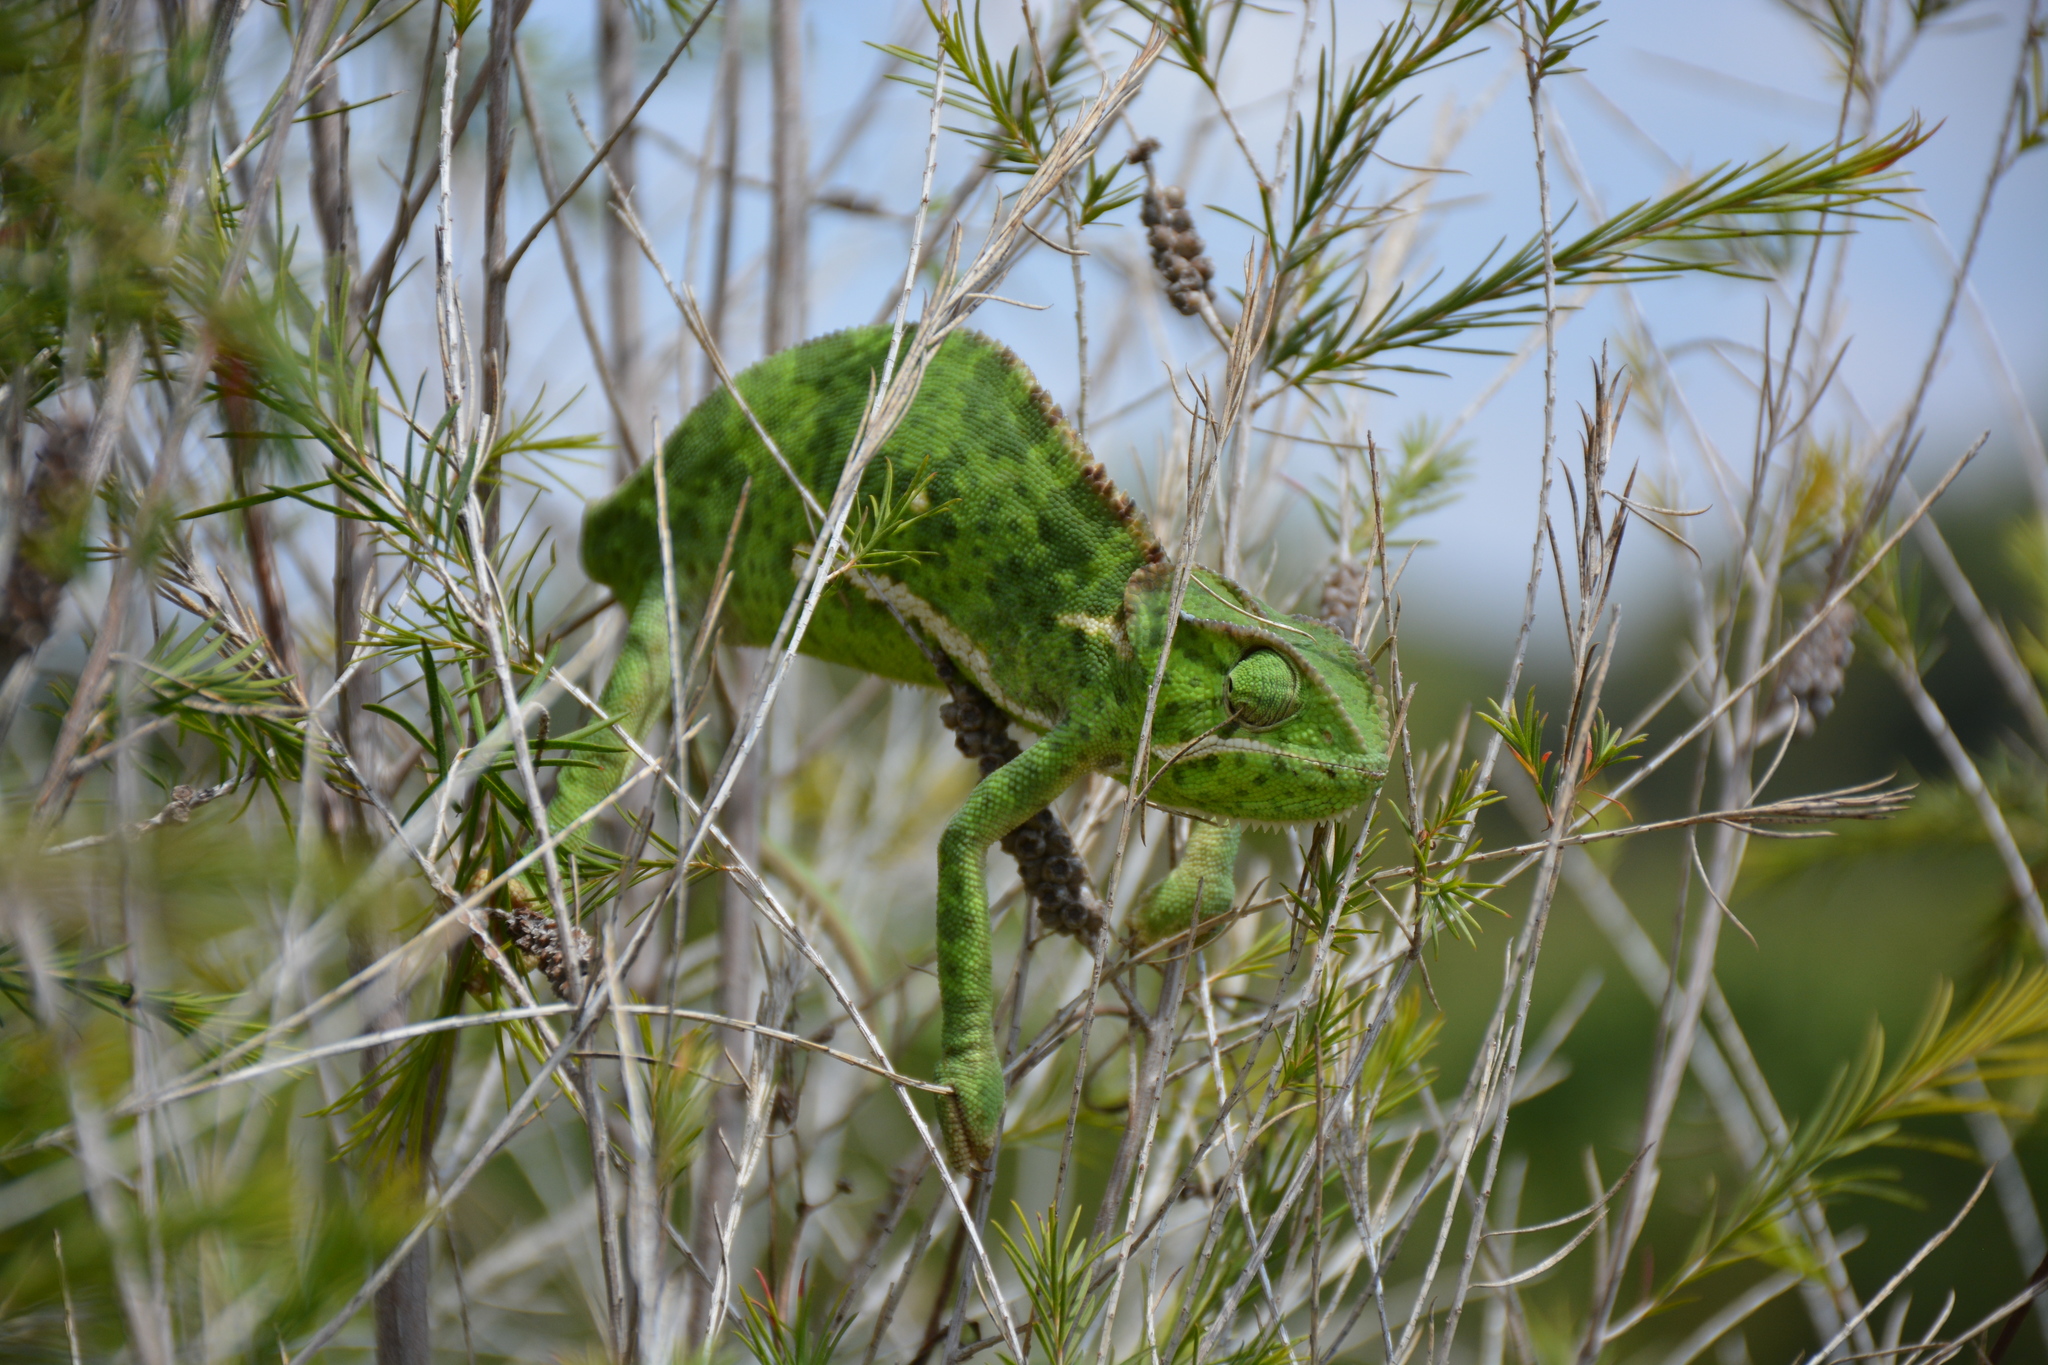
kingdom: Animalia
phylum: Chordata
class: Squamata
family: Chamaeleonidae
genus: Chamaeleo
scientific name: Chamaeleo dilepis
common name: Flapneck chameleon
